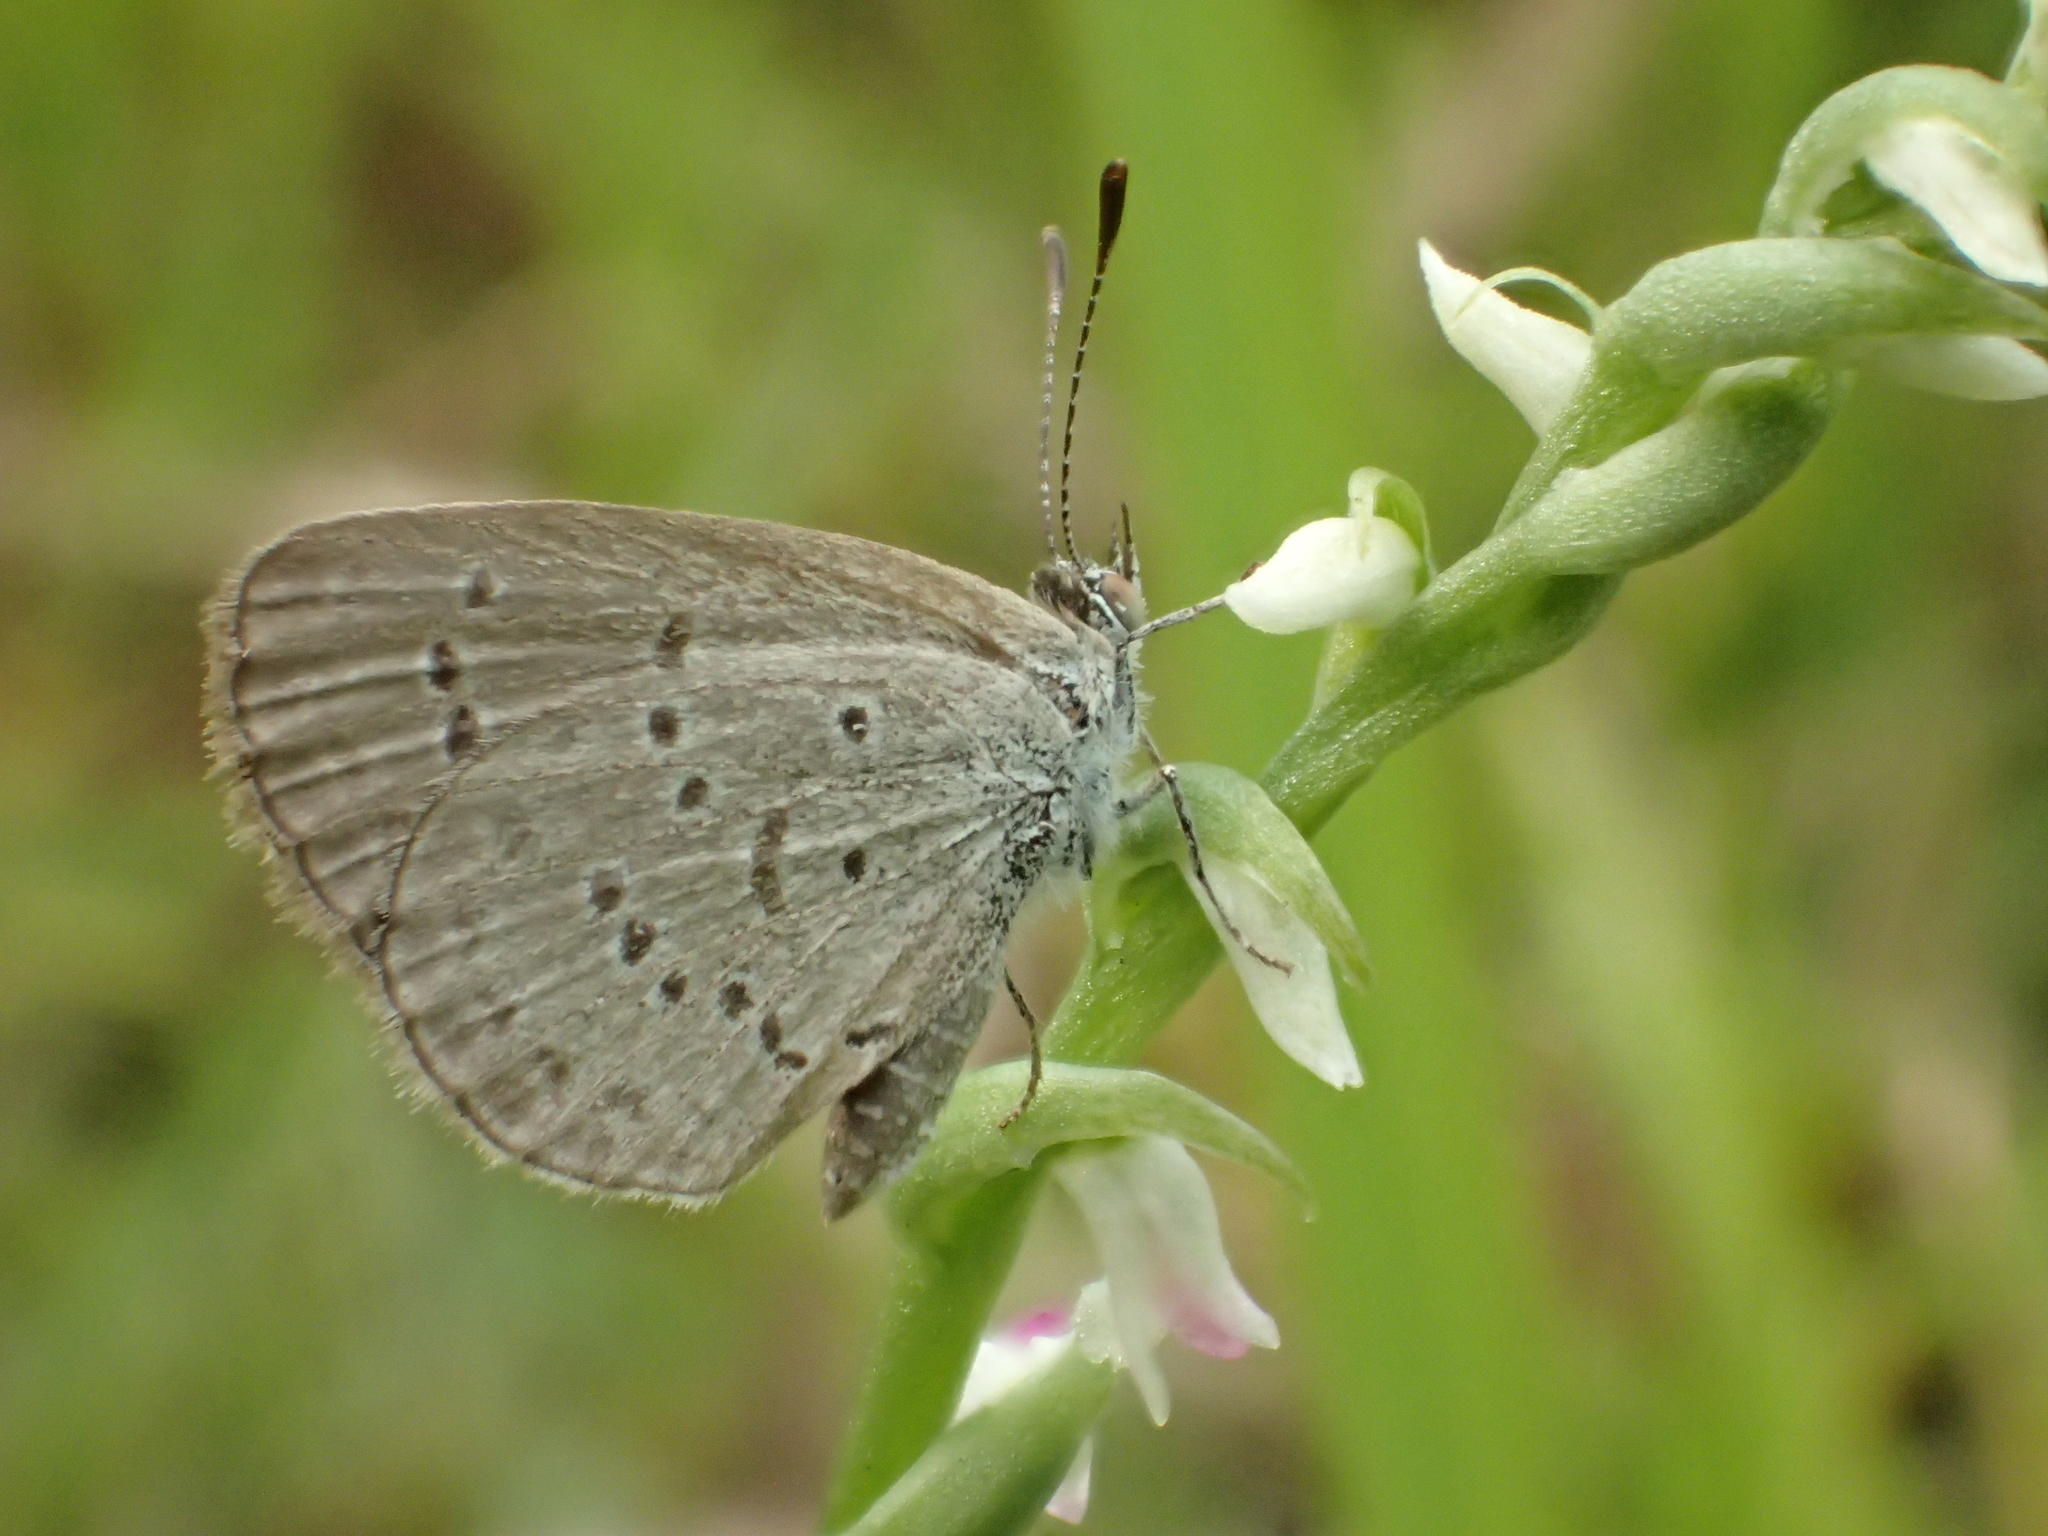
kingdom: Animalia
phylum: Arthropoda
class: Insecta
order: Lepidoptera
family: Lycaenidae
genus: Zizina
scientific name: Zizina otis
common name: Lesser grass blue
